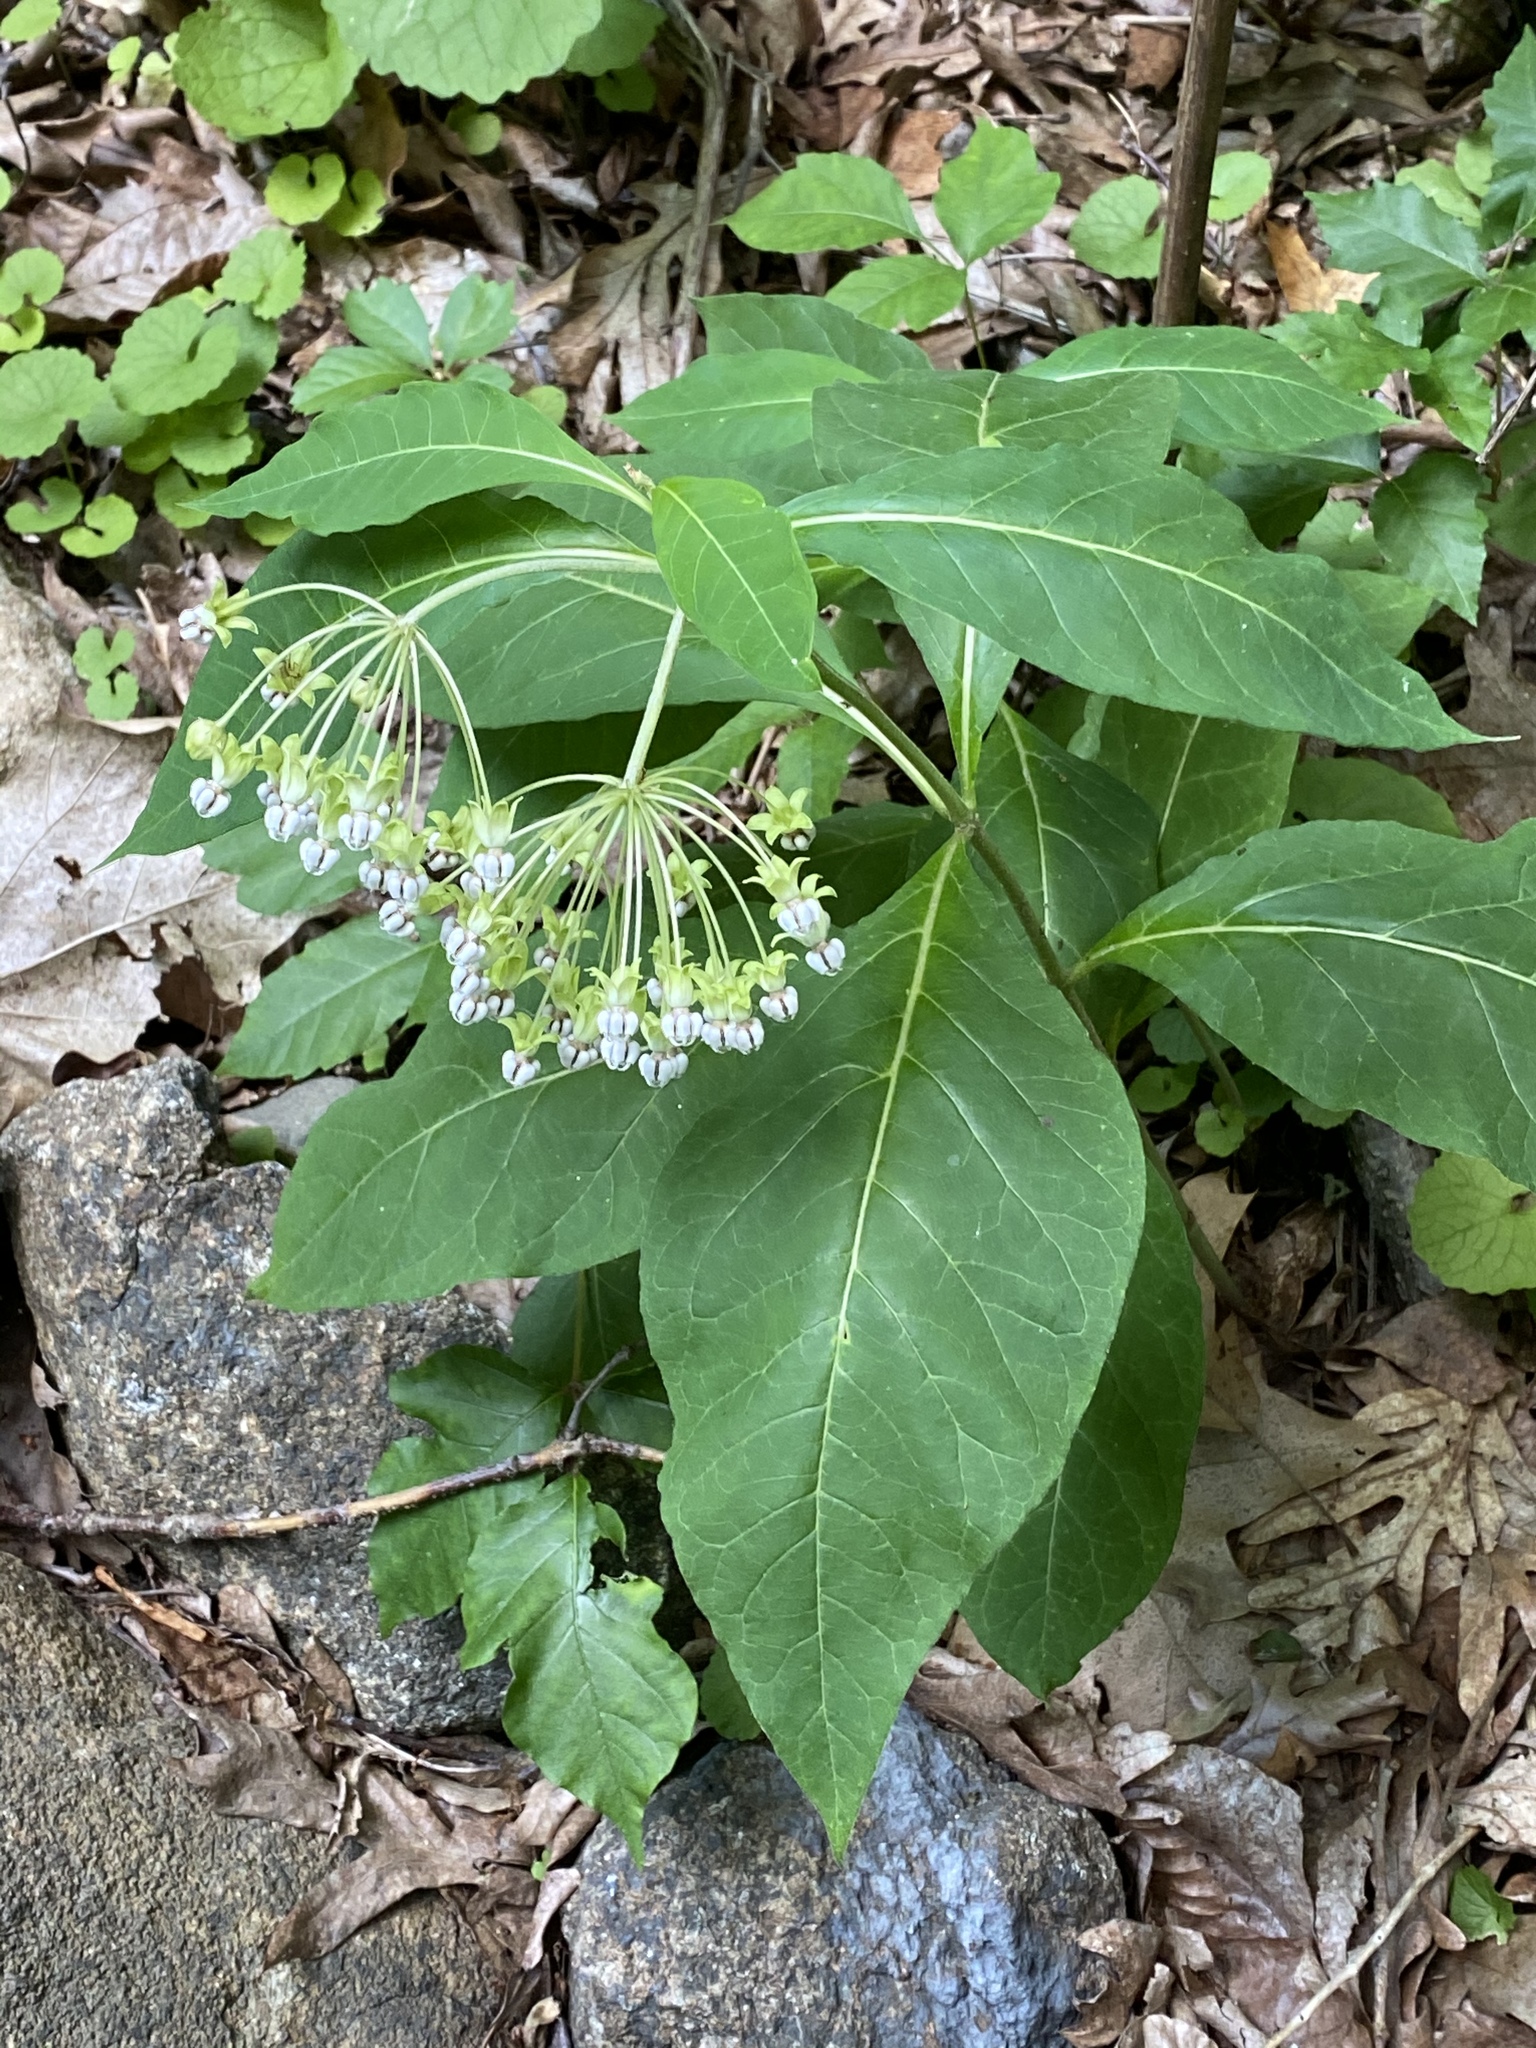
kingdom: Plantae
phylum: Tracheophyta
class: Magnoliopsida
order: Gentianales
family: Apocynaceae
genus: Asclepias
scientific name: Asclepias exaltata
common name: Poke milkweed
